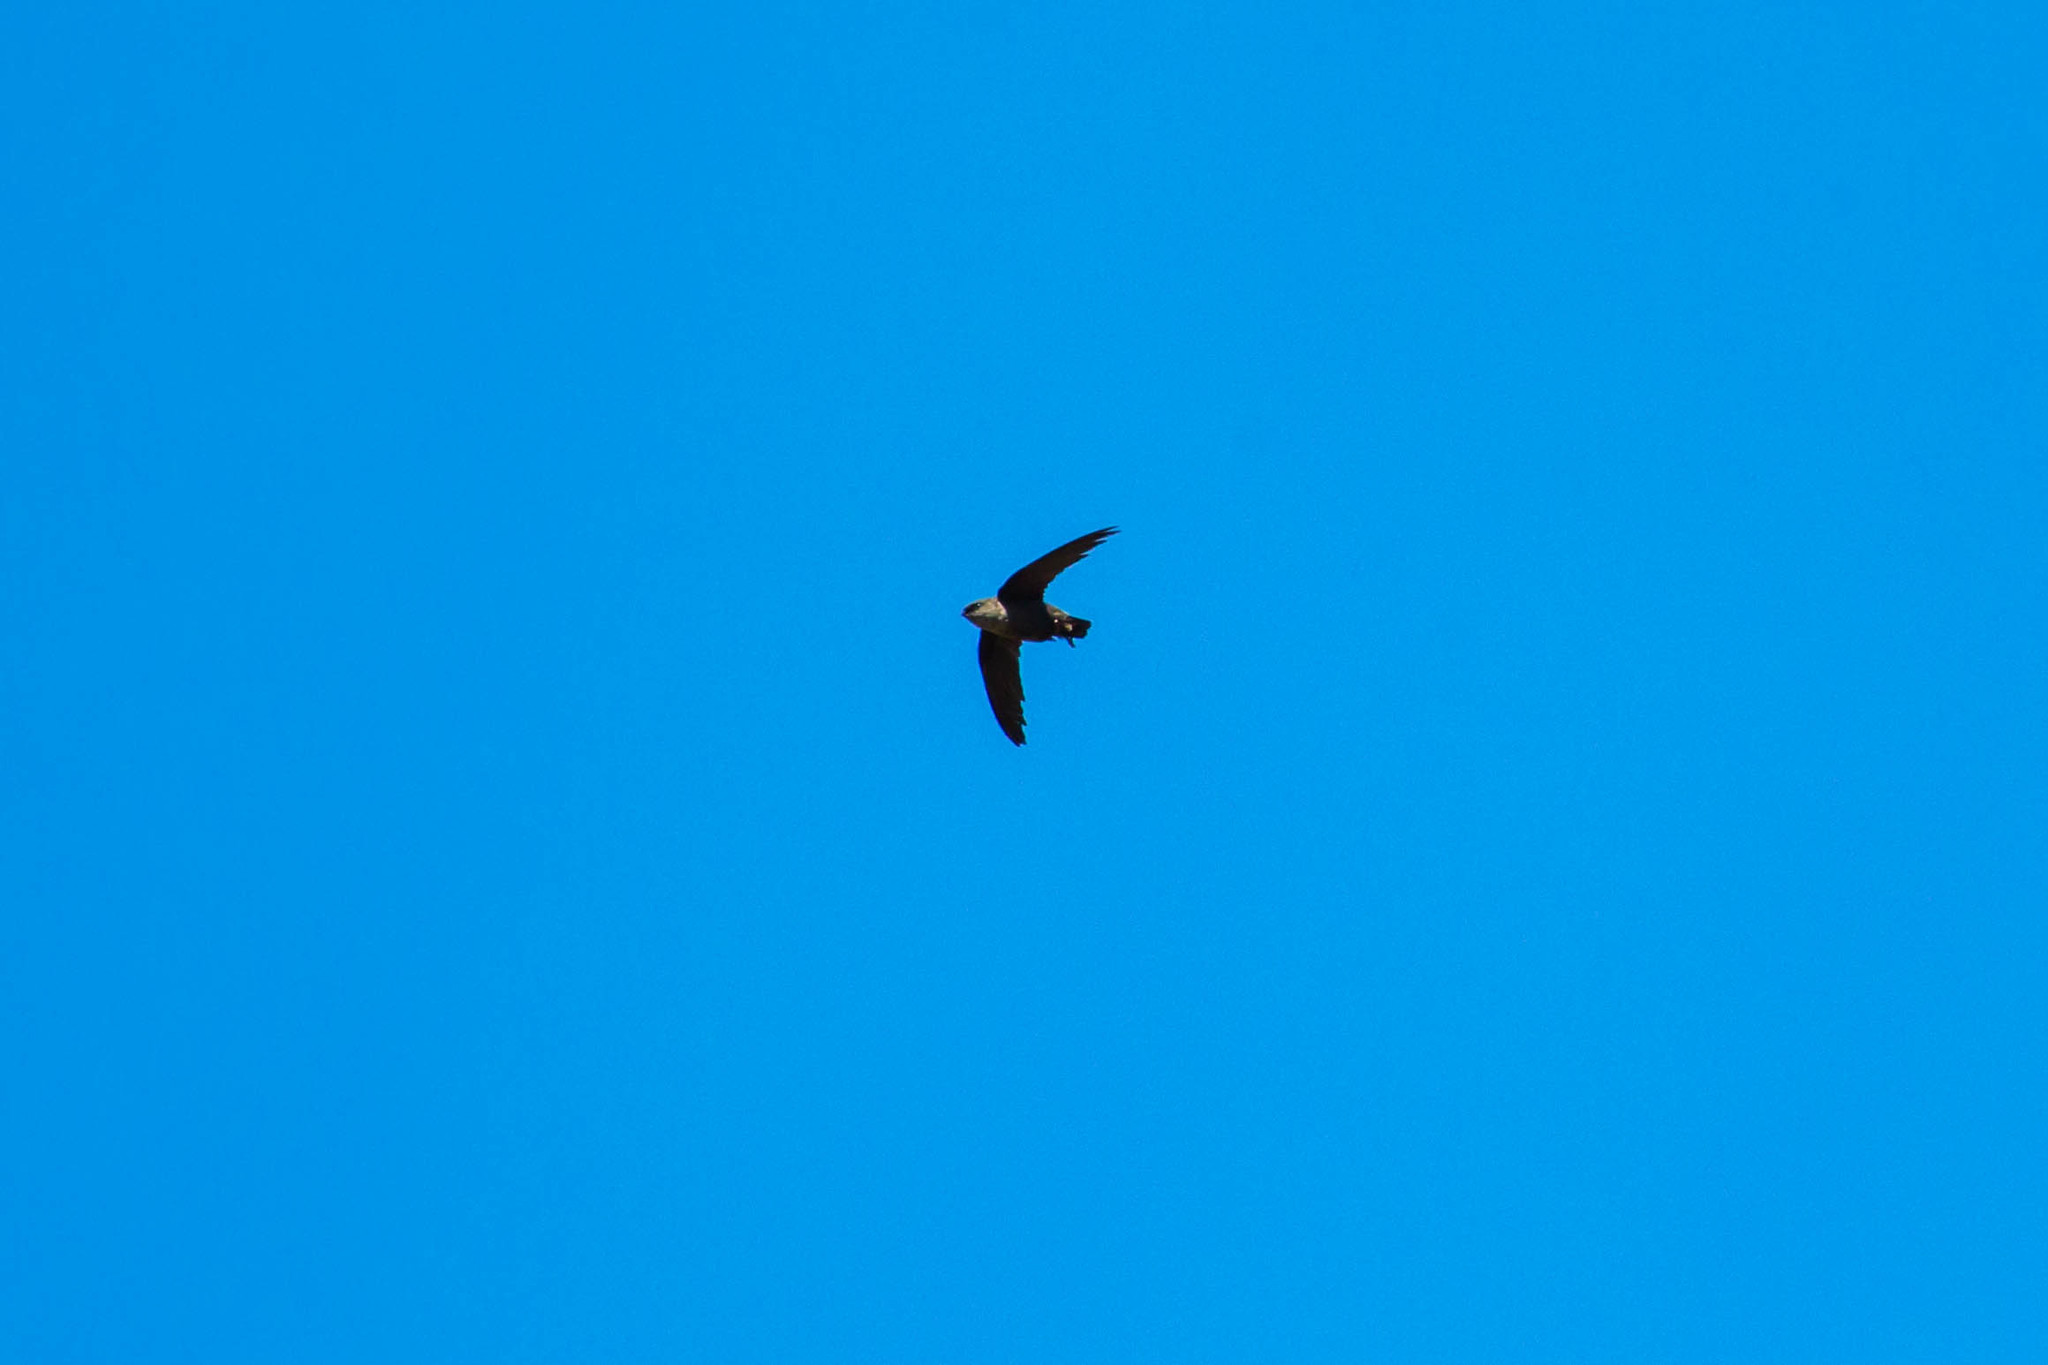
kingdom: Animalia
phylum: Chordata
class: Aves
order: Apodiformes
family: Apodidae
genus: Chaetura
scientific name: Chaetura vauxi
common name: Vaux's swift
